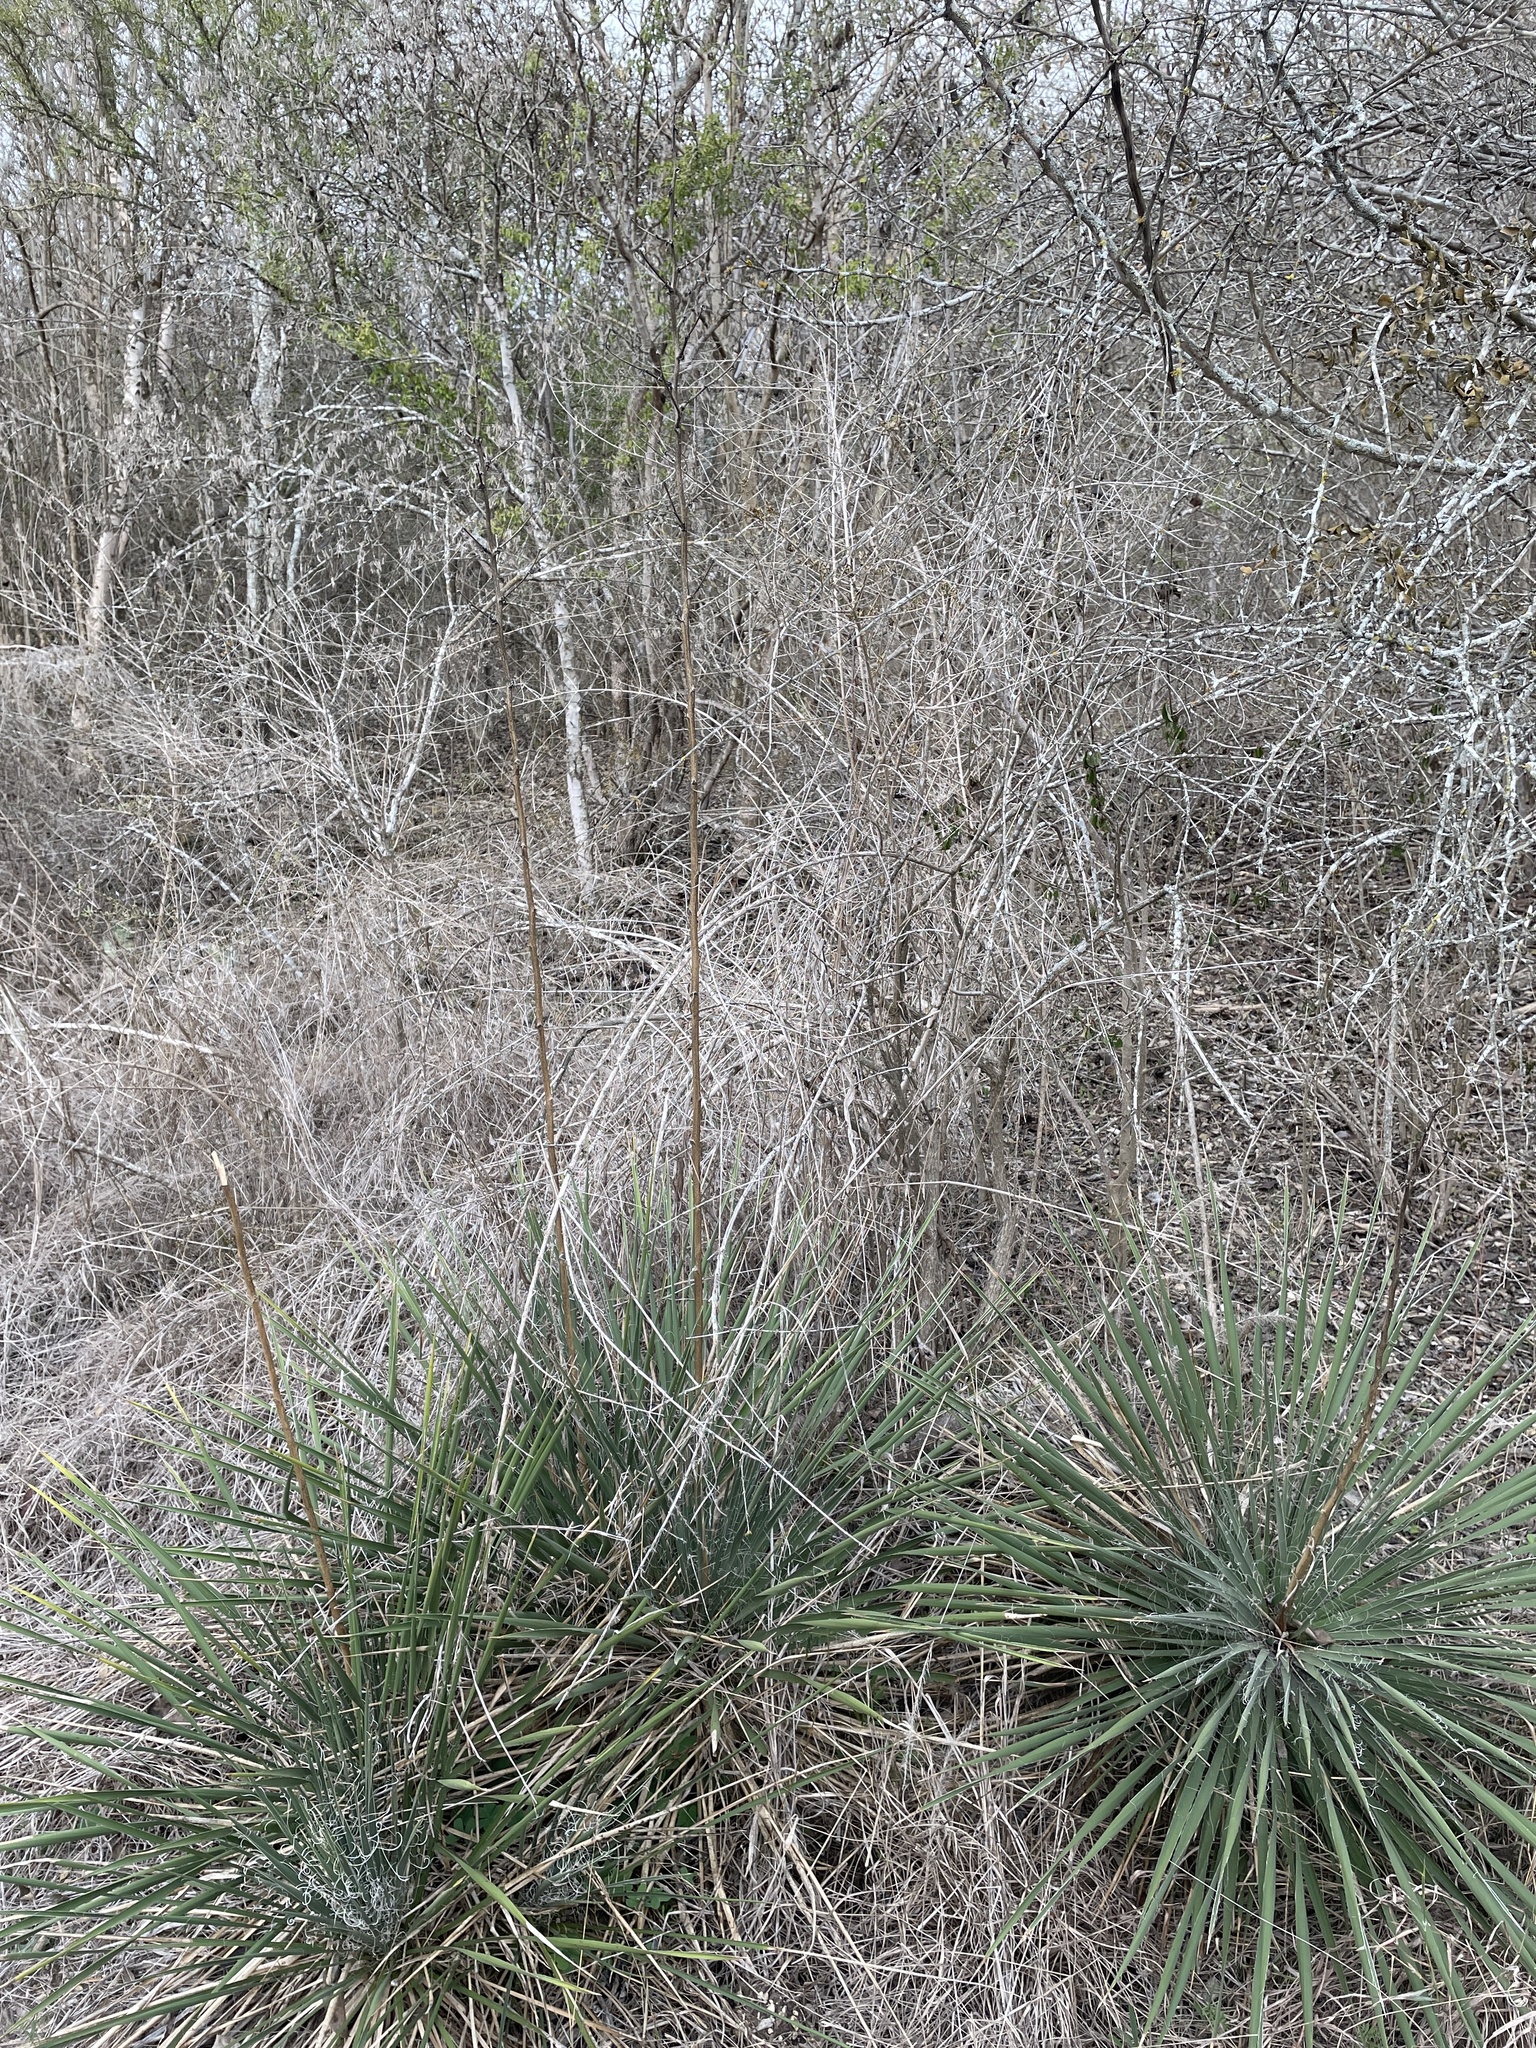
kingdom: Plantae
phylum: Tracheophyta
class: Liliopsida
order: Asparagales
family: Asparagaceae
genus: Yucca
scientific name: Yucca constricta
